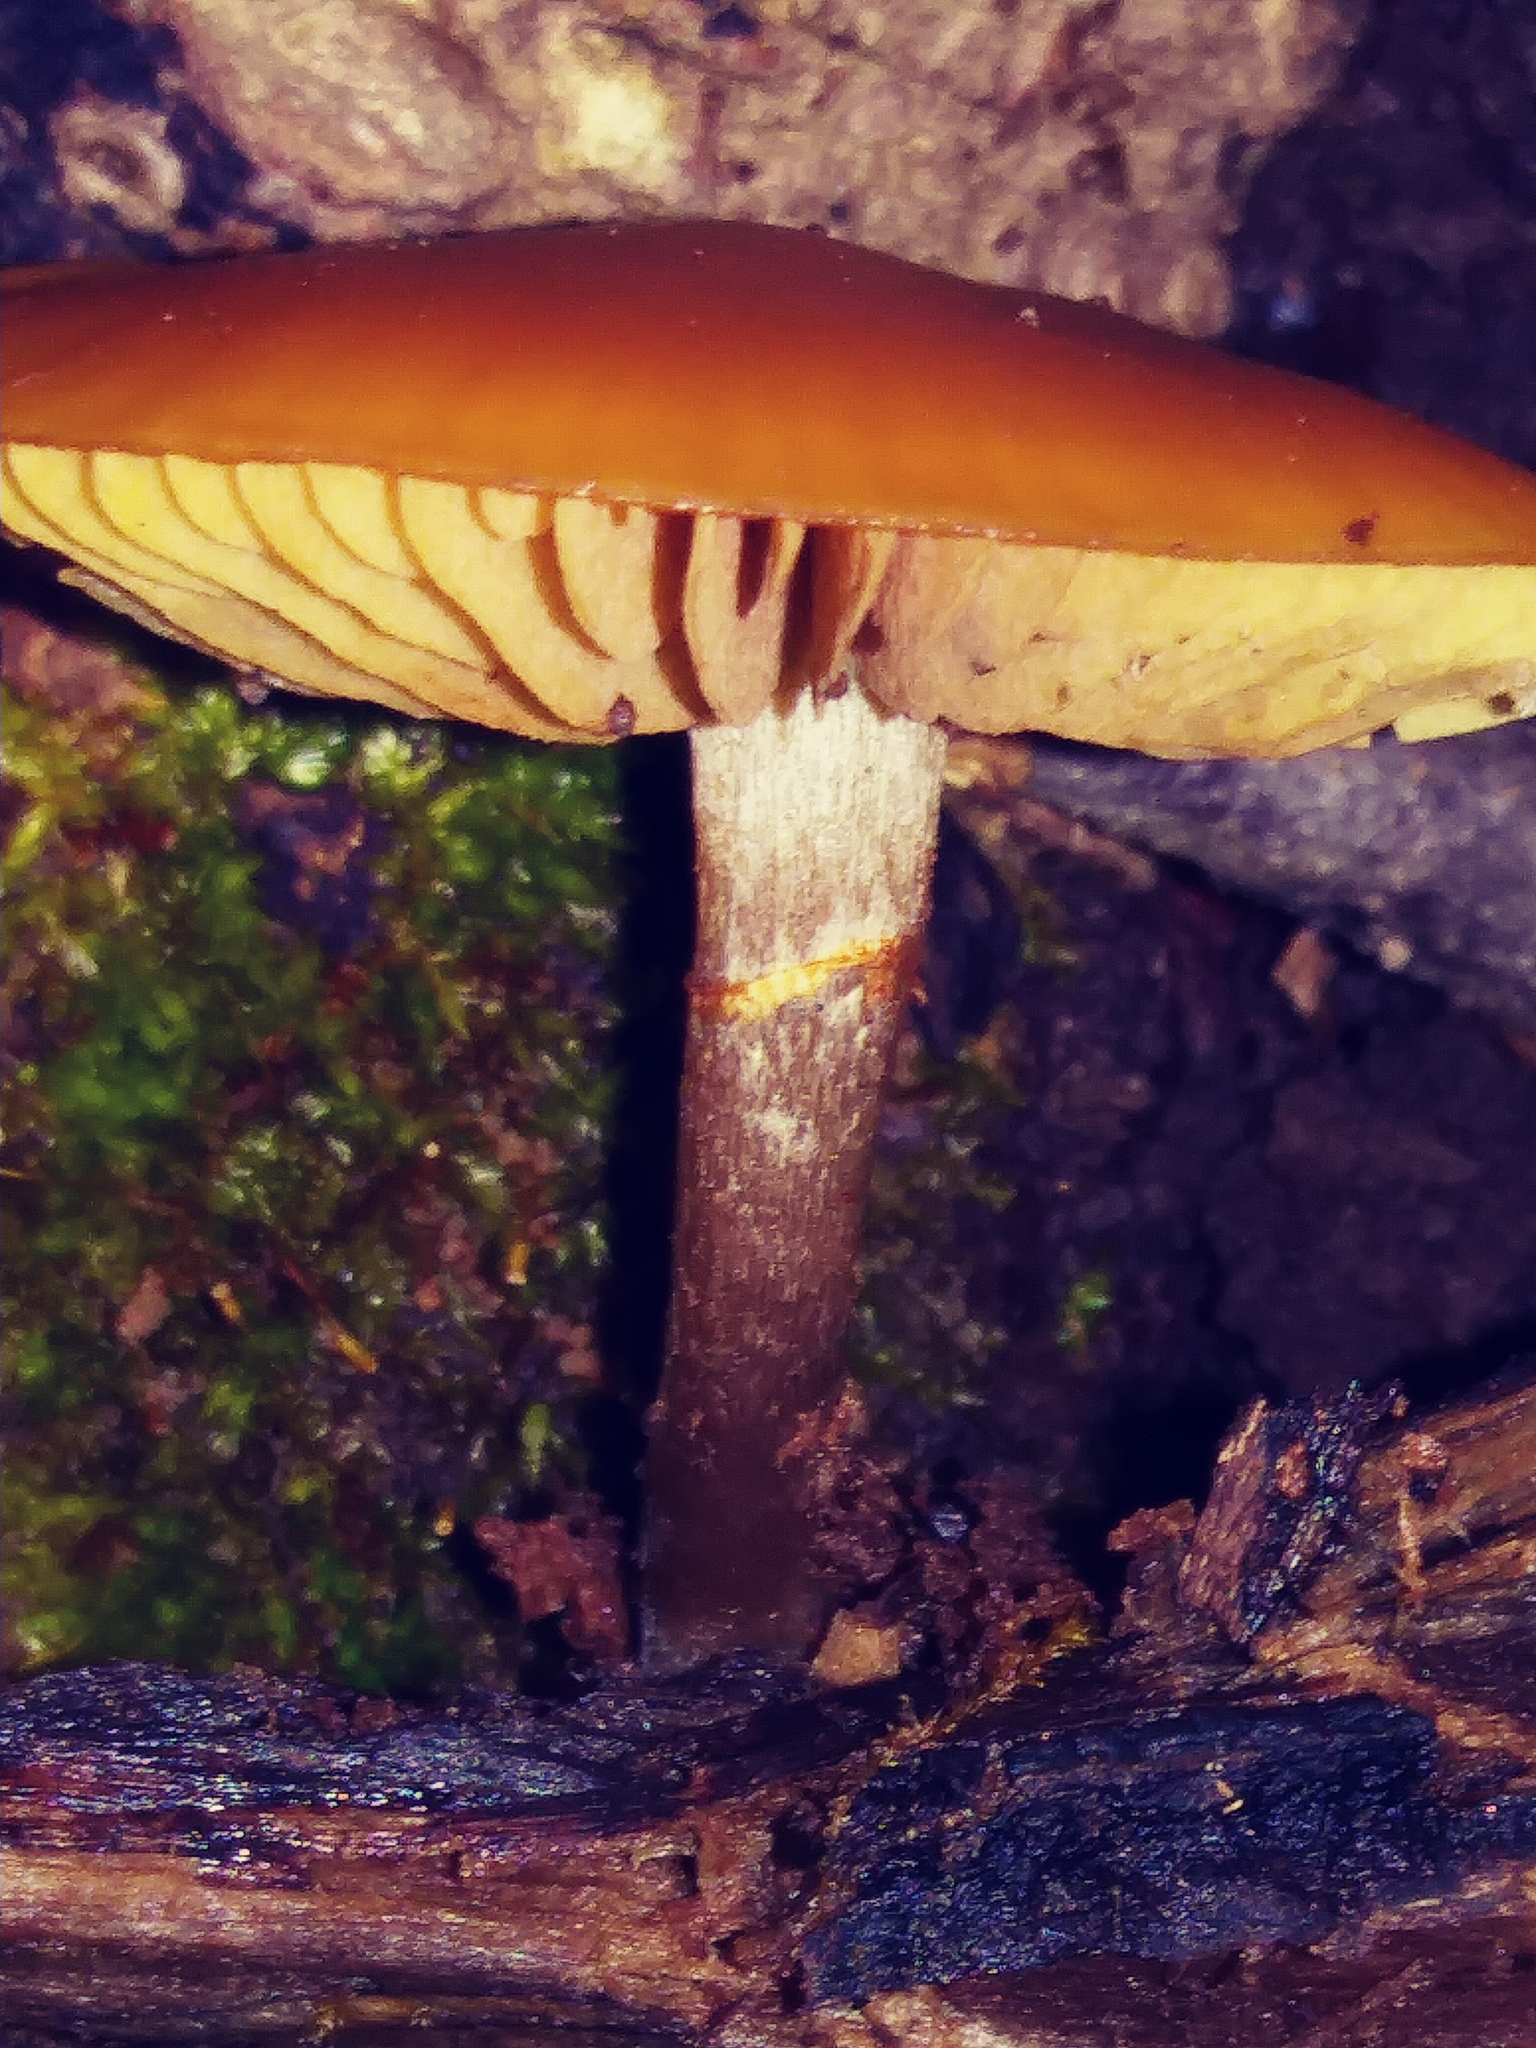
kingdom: Fungi
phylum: Basidiomycota
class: Agaricomycetes
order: Agaricales
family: Hymenogastraceae
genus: Galerina
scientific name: Galerina marginata
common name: Funeral bell
